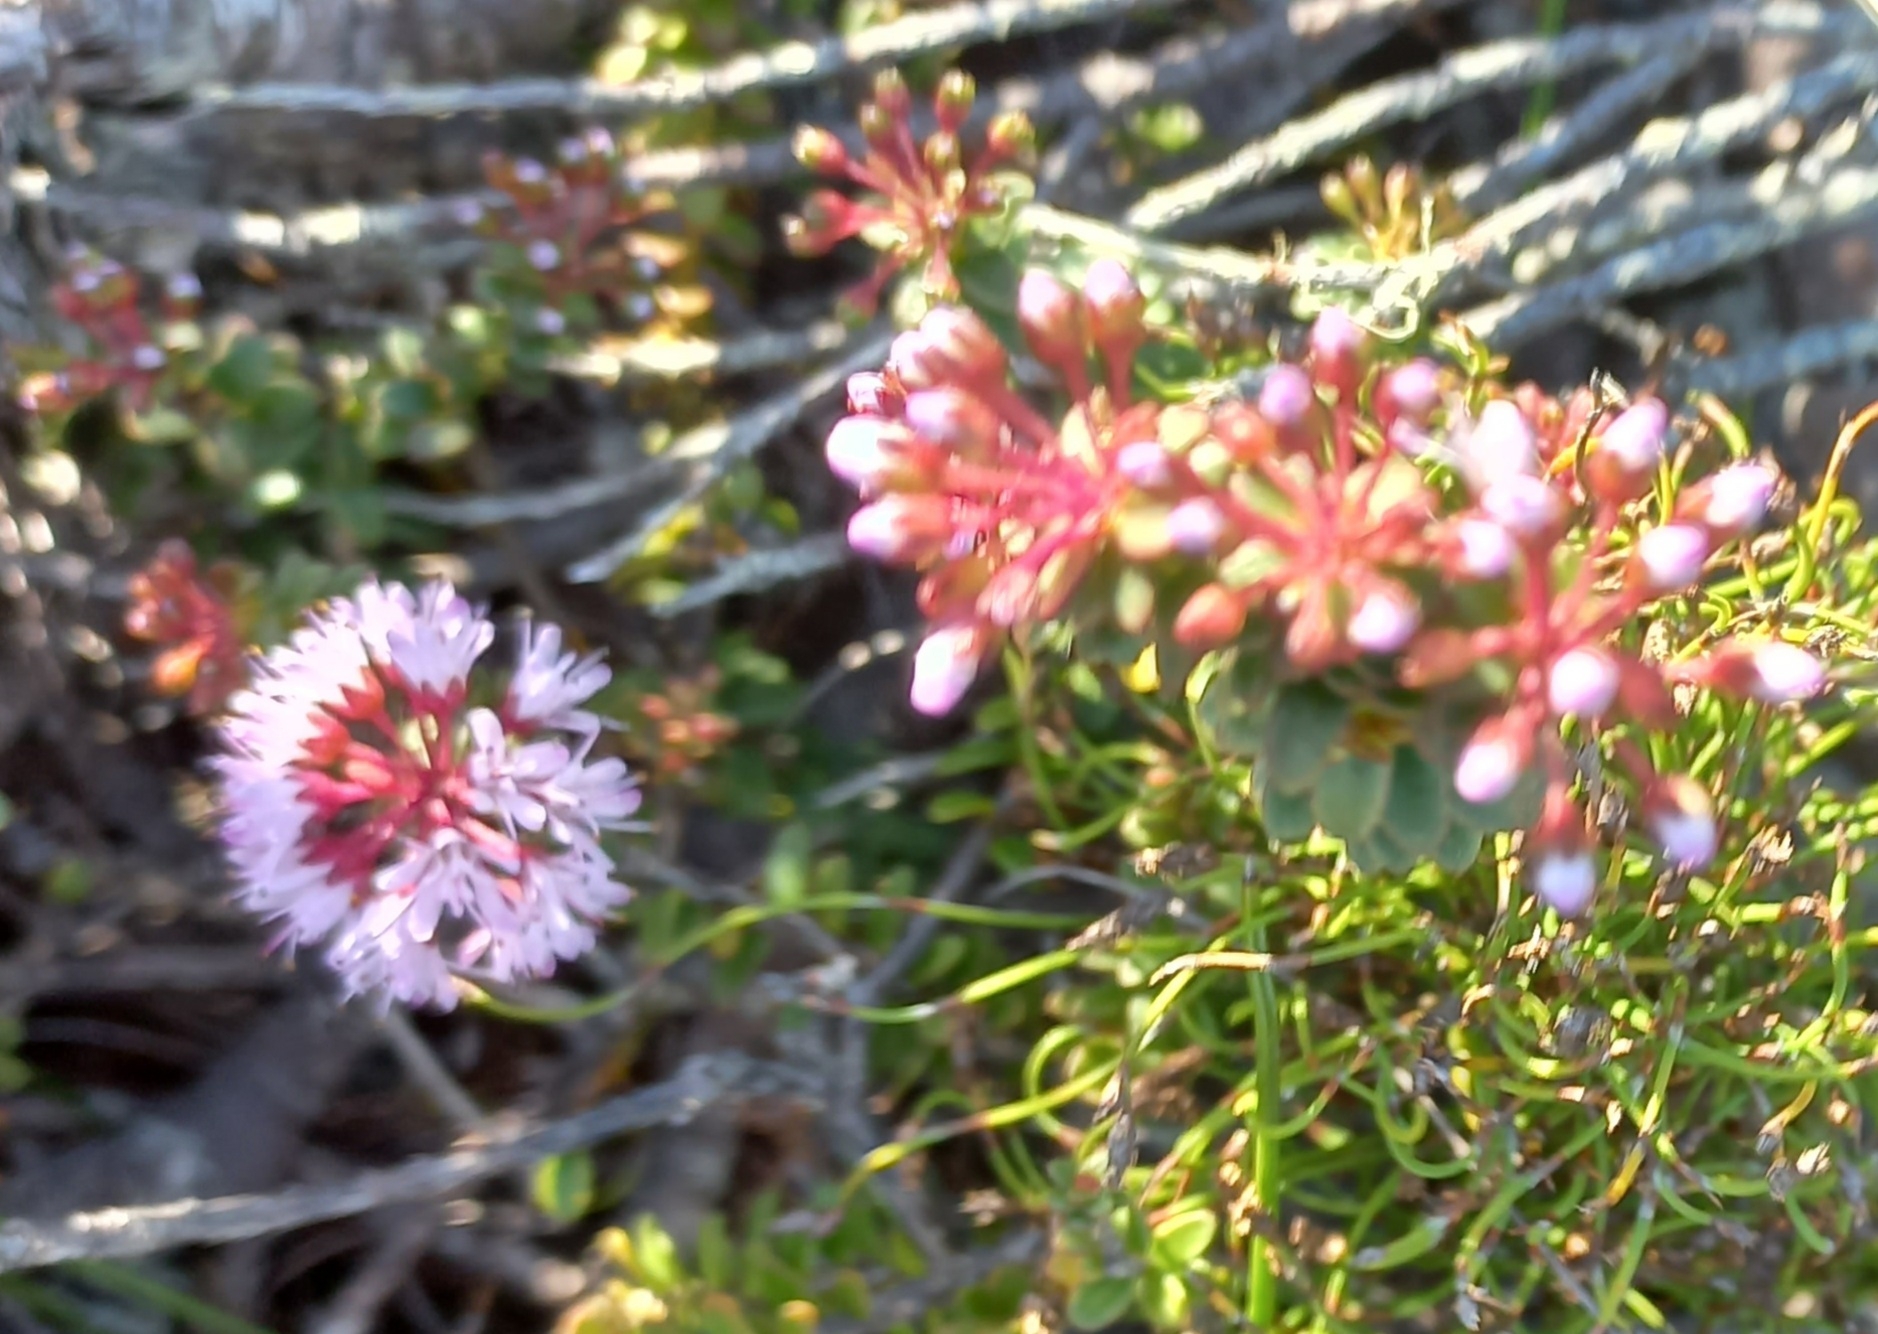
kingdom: Plantae
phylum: Tracheophyta
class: Magnoliopsida
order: Sapindales
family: Rutaceae
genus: Agathosma
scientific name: Agathosma capensis
